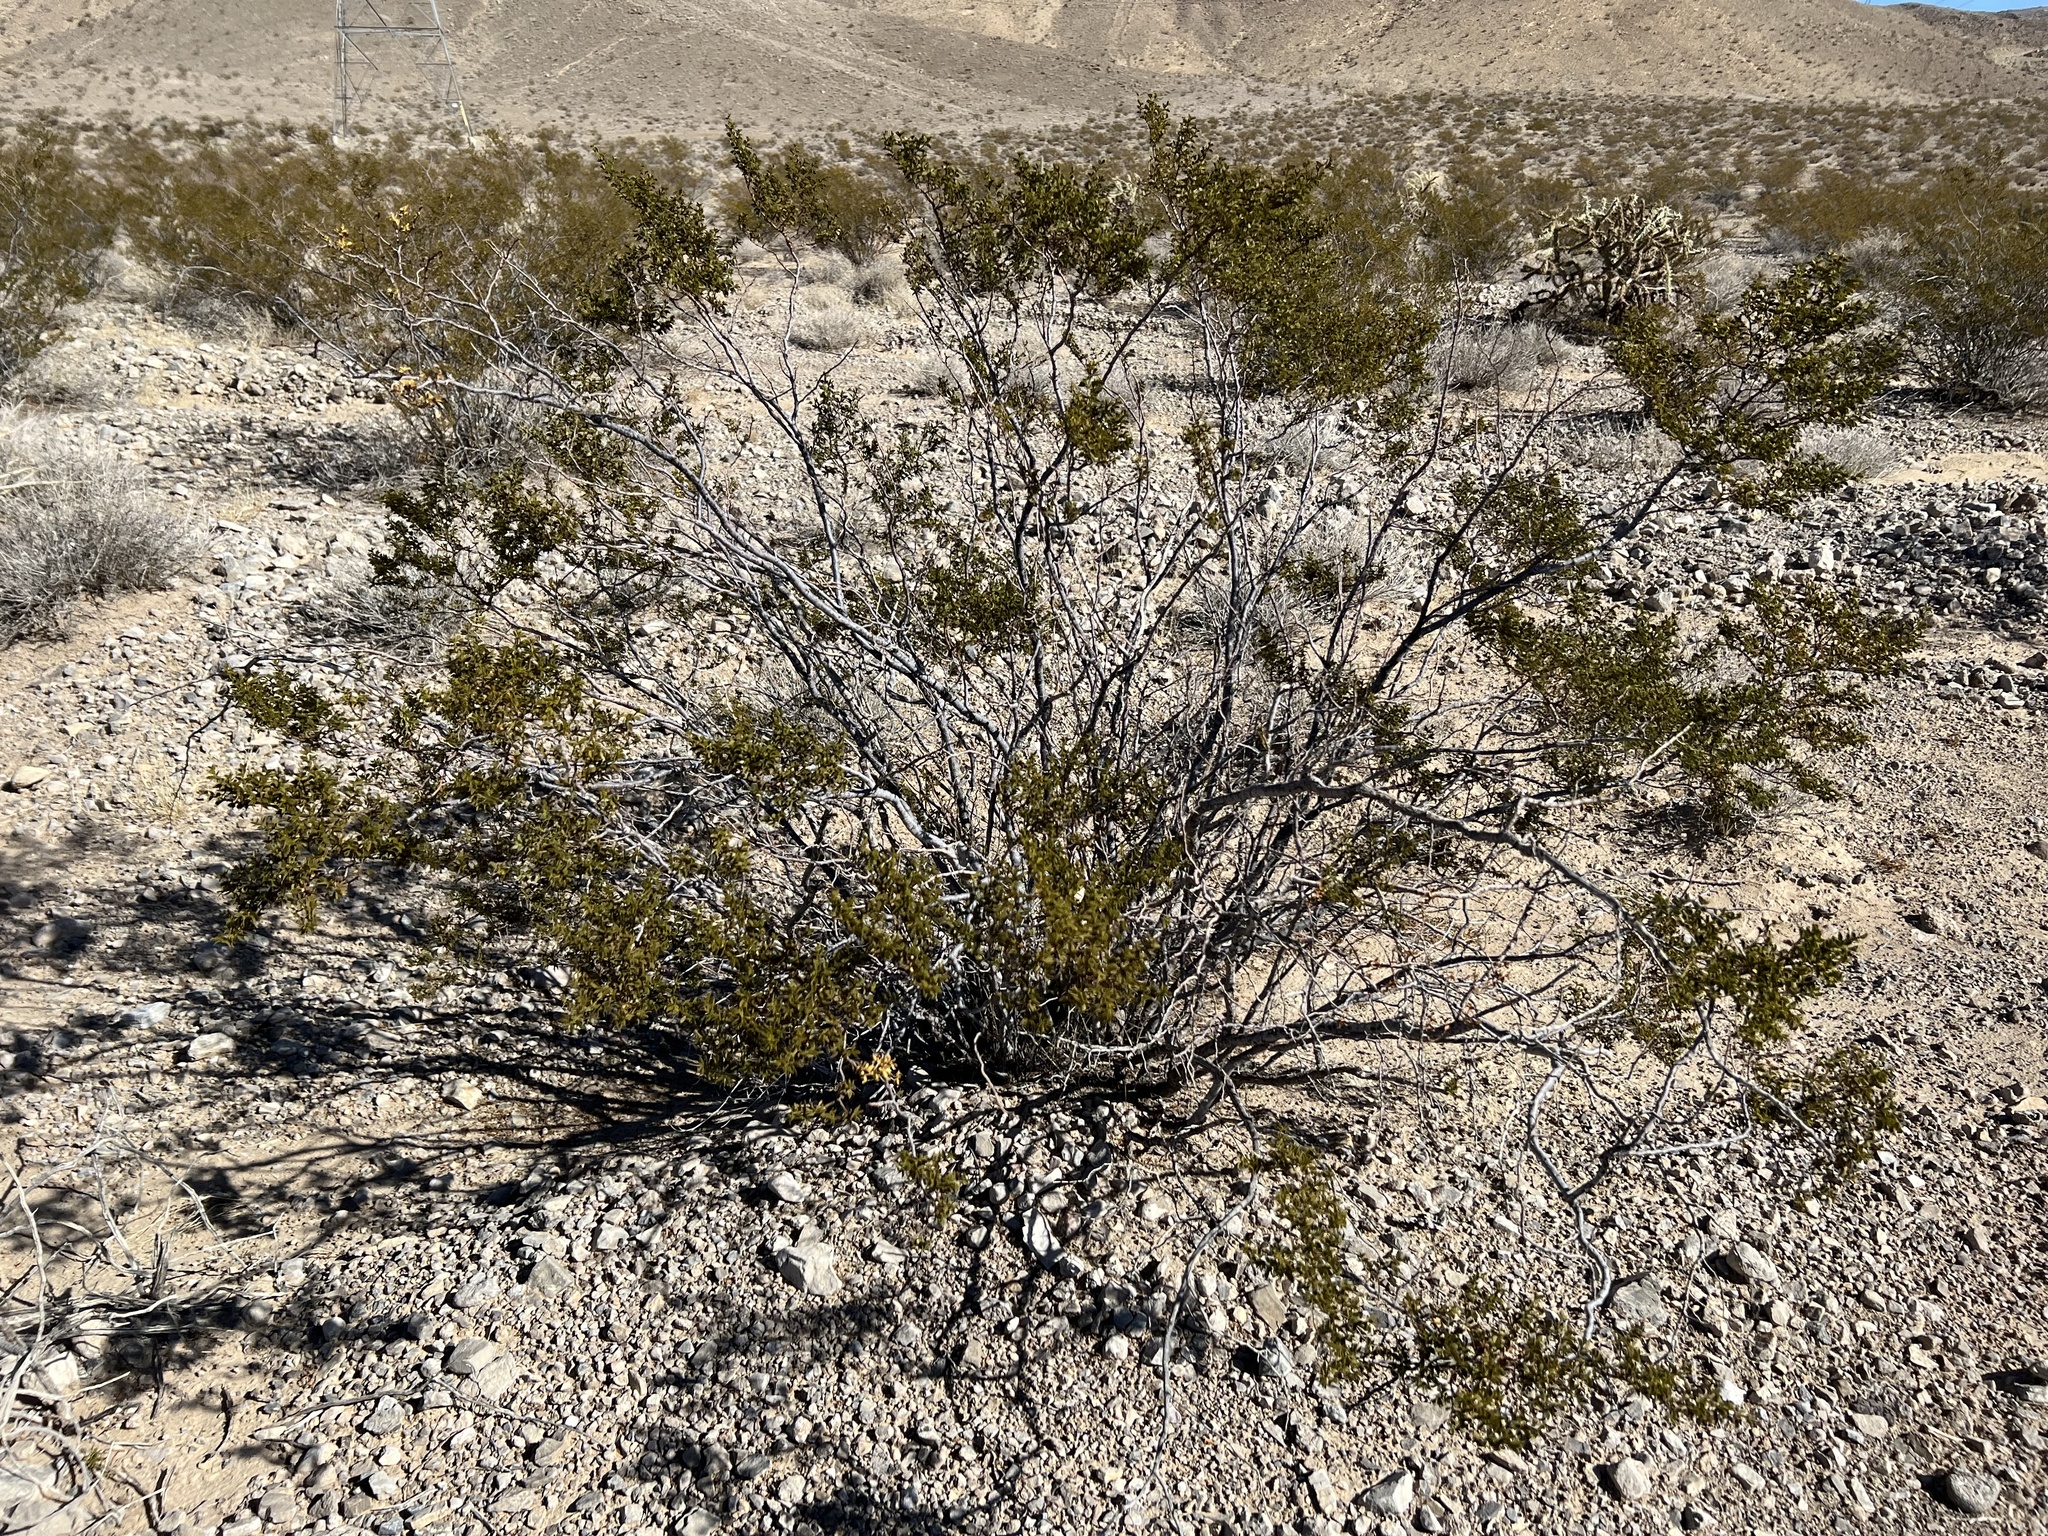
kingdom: Plantae
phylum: Tracheophyta
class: Magnoliopsida
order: Zygophyllales
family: Zygophyllaceae
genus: Larrea
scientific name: Larrea tridentata
